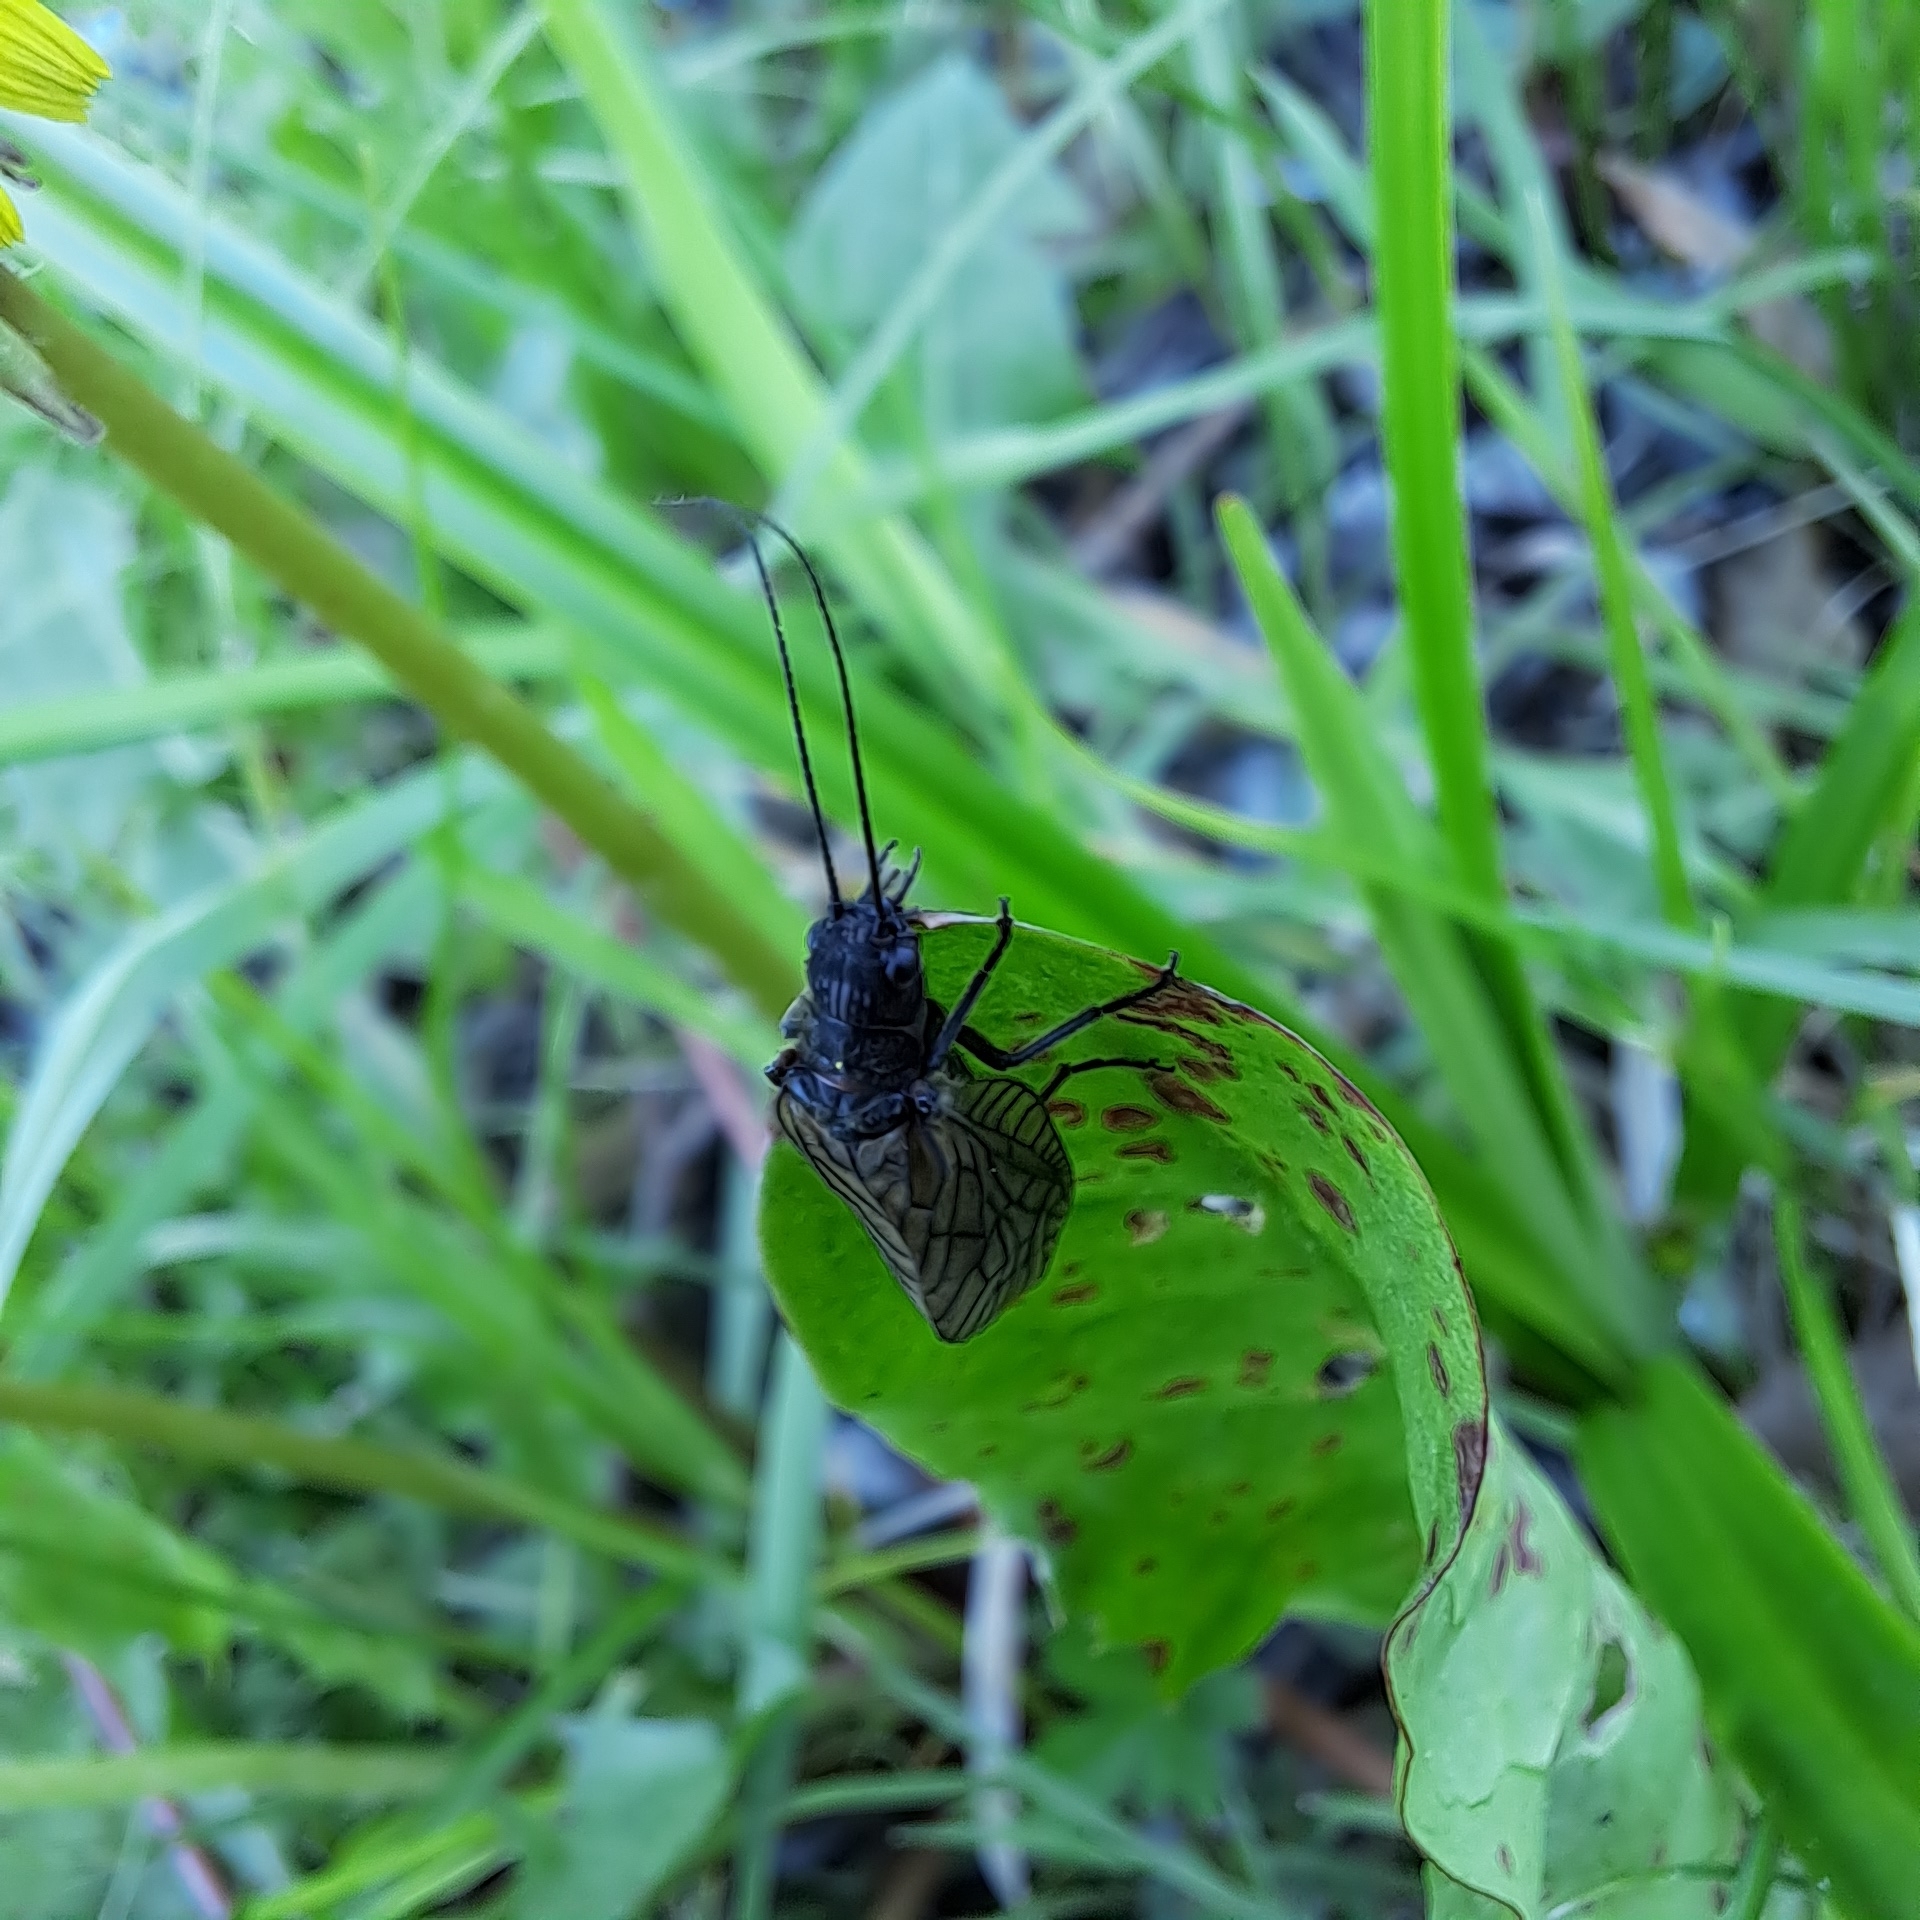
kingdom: Animalia
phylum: Arthropoda
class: Insecta
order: Megaloptera
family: Sialidae
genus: Sialis
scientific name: Sialis
